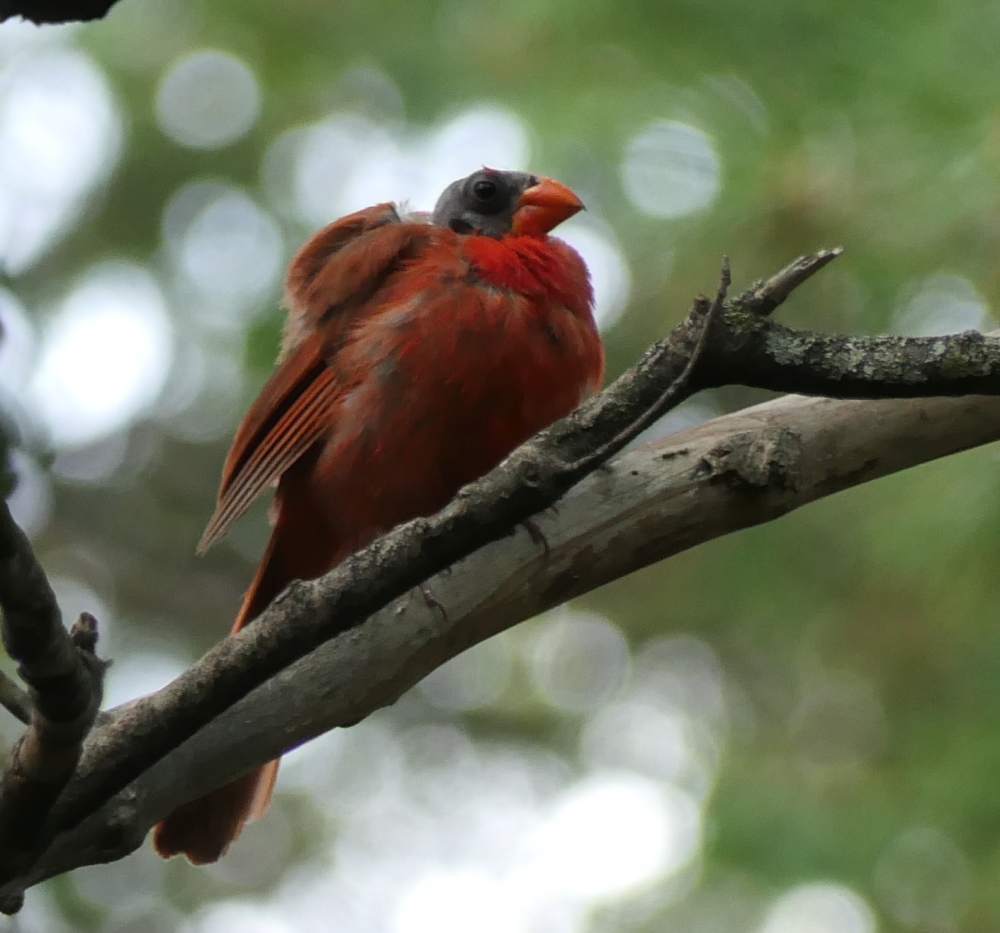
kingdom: Animalia
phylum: Chordata
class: Aves
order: Passeriformes
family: Cardinalidae
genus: Cardinalis
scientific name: Cardinalis cardinalis
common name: Northern cardinal
